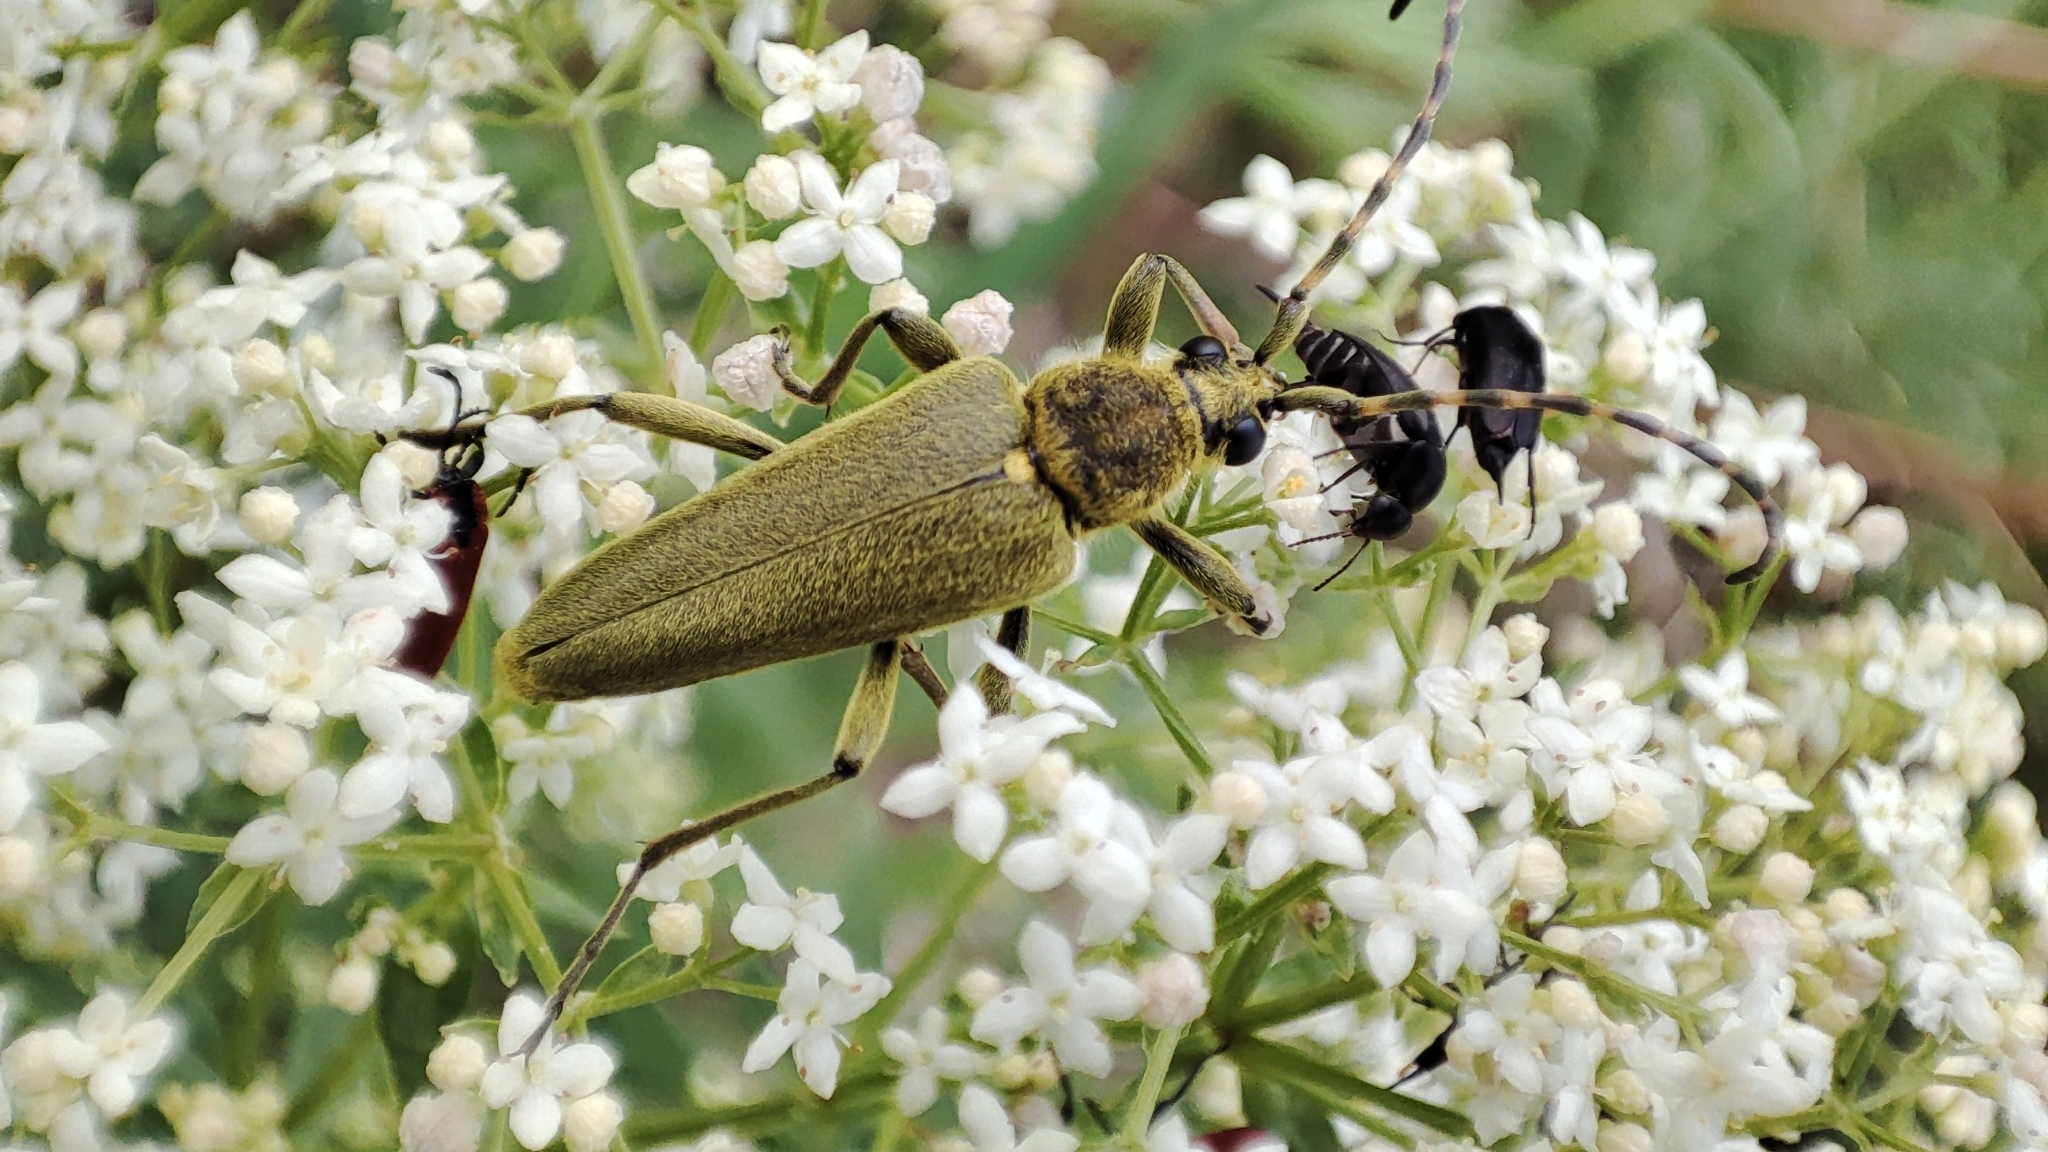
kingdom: Animalia
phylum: Arthropoda
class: Insecta
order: Coleoptera
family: Cerambycidae
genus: Lepturobosca
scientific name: Lepturobosca virens
